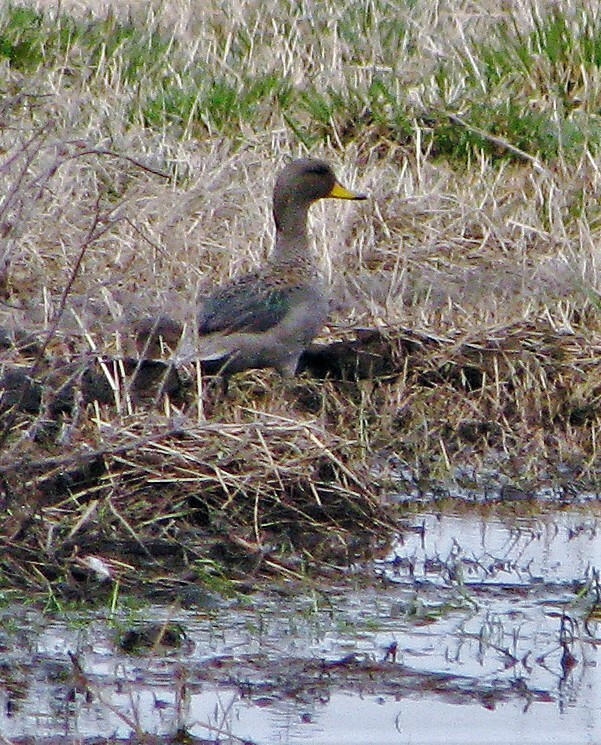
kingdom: Animalia
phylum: Chordata
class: Aves
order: Anseriformes
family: Anatidae
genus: Anas
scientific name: Anas flavirostris
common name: Yellow-billed teal
